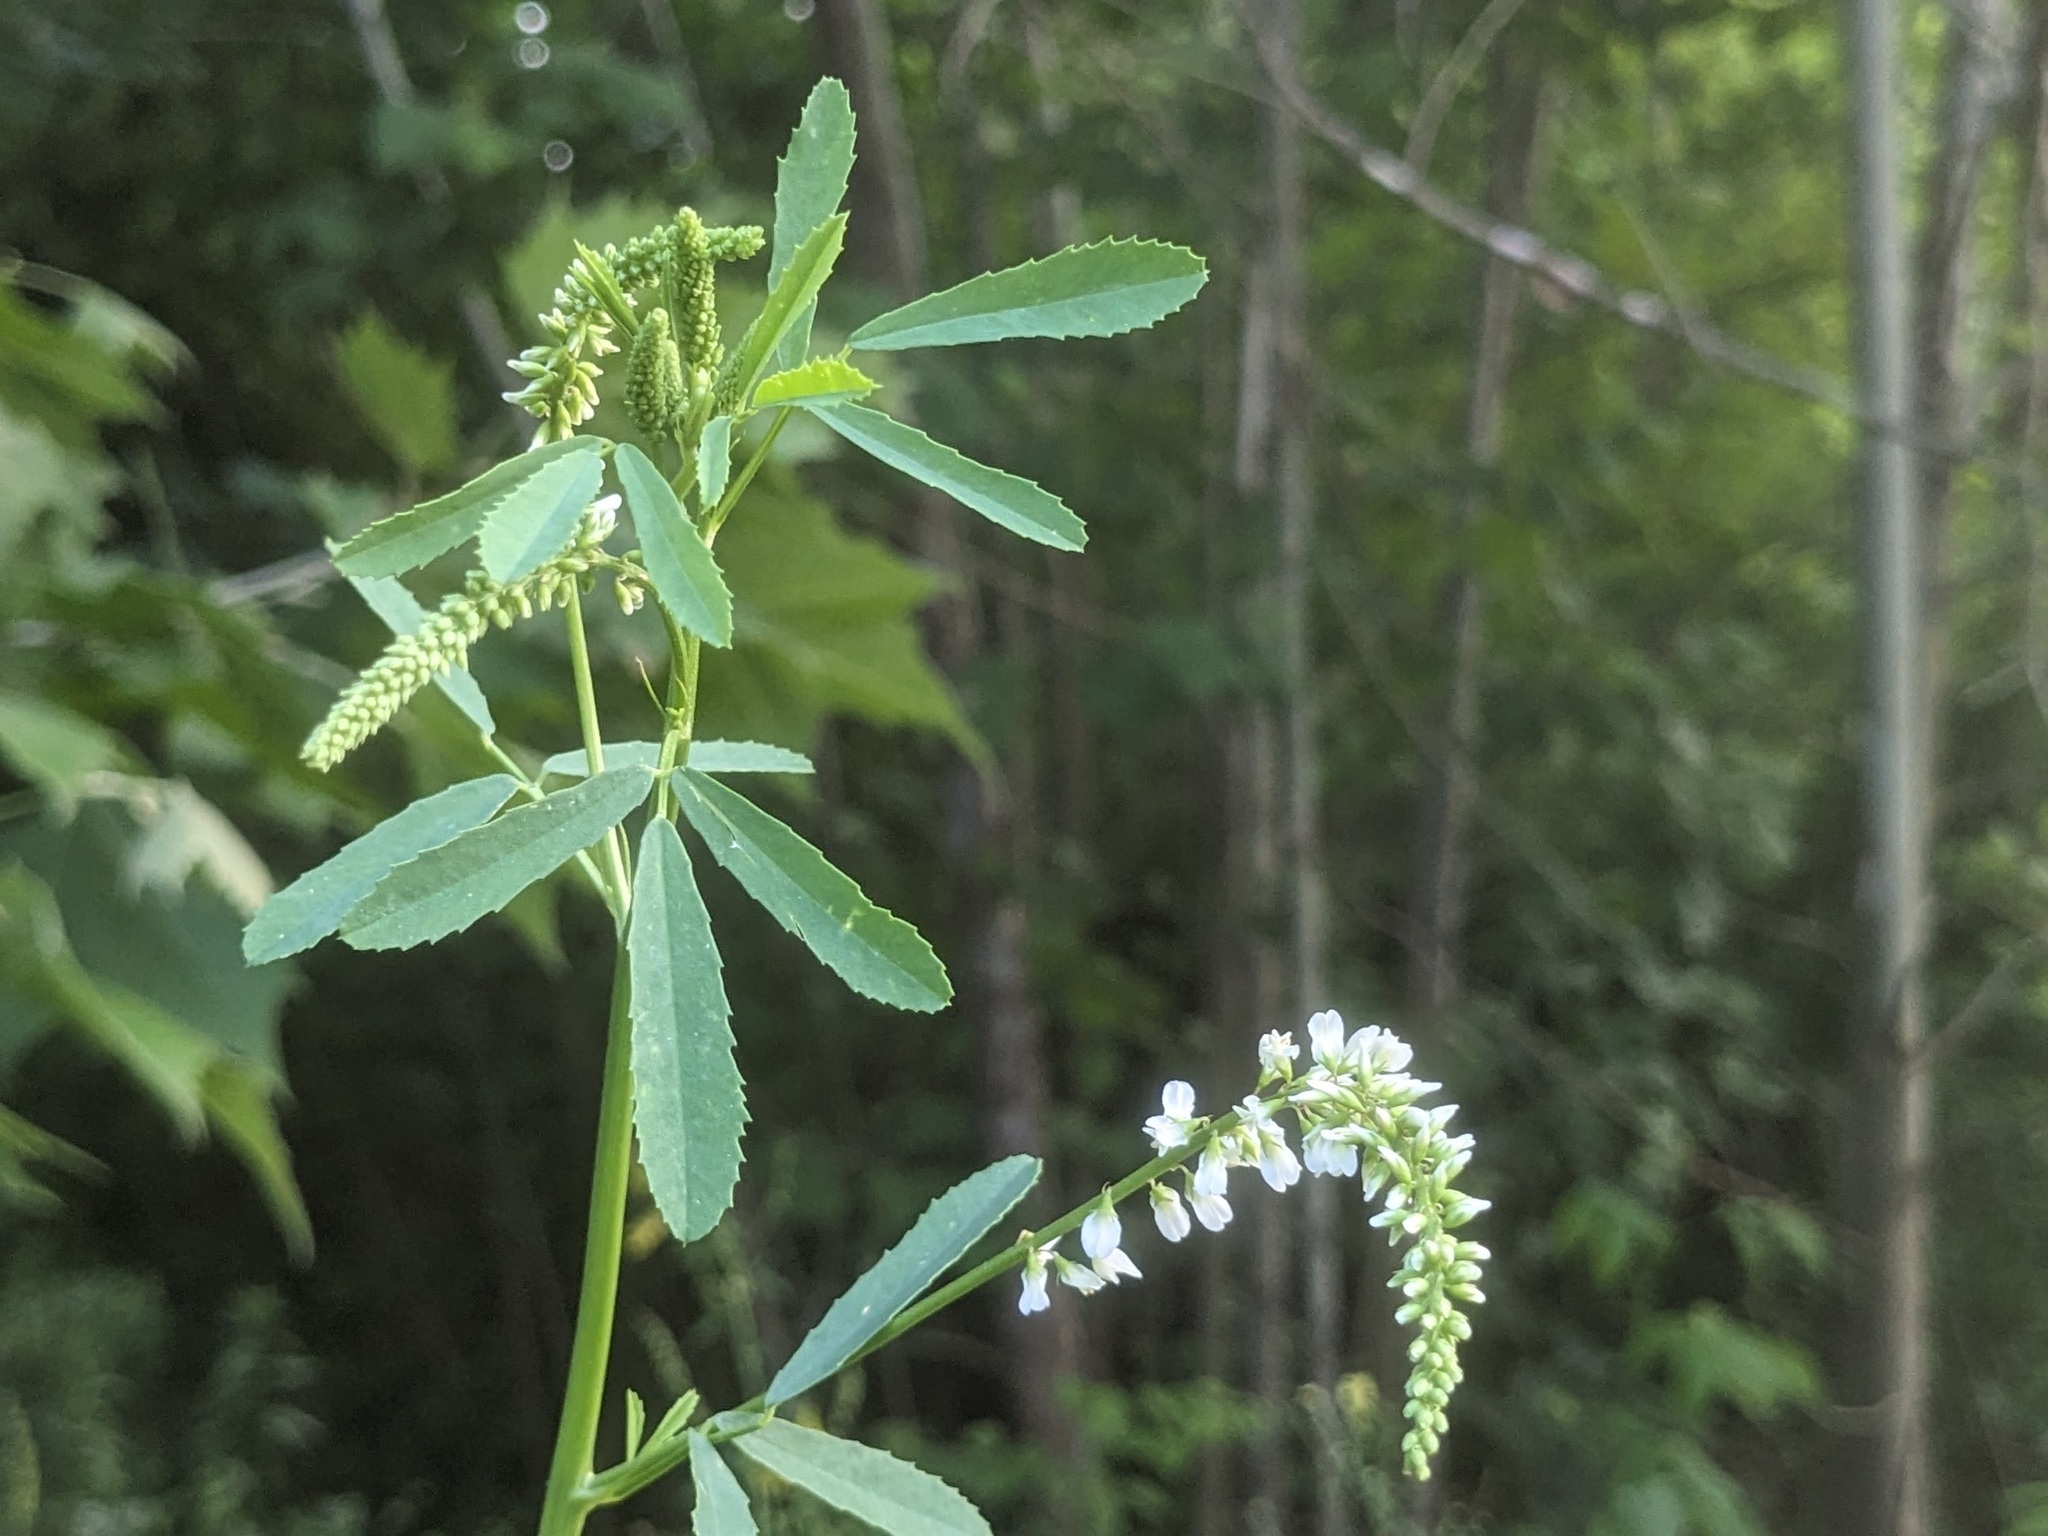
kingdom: Plantae
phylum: Tracheophyta
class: Magnoliopsida
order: Fabales
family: Fabaceae
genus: Melilotus
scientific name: Melilotus albus
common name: White melilot
